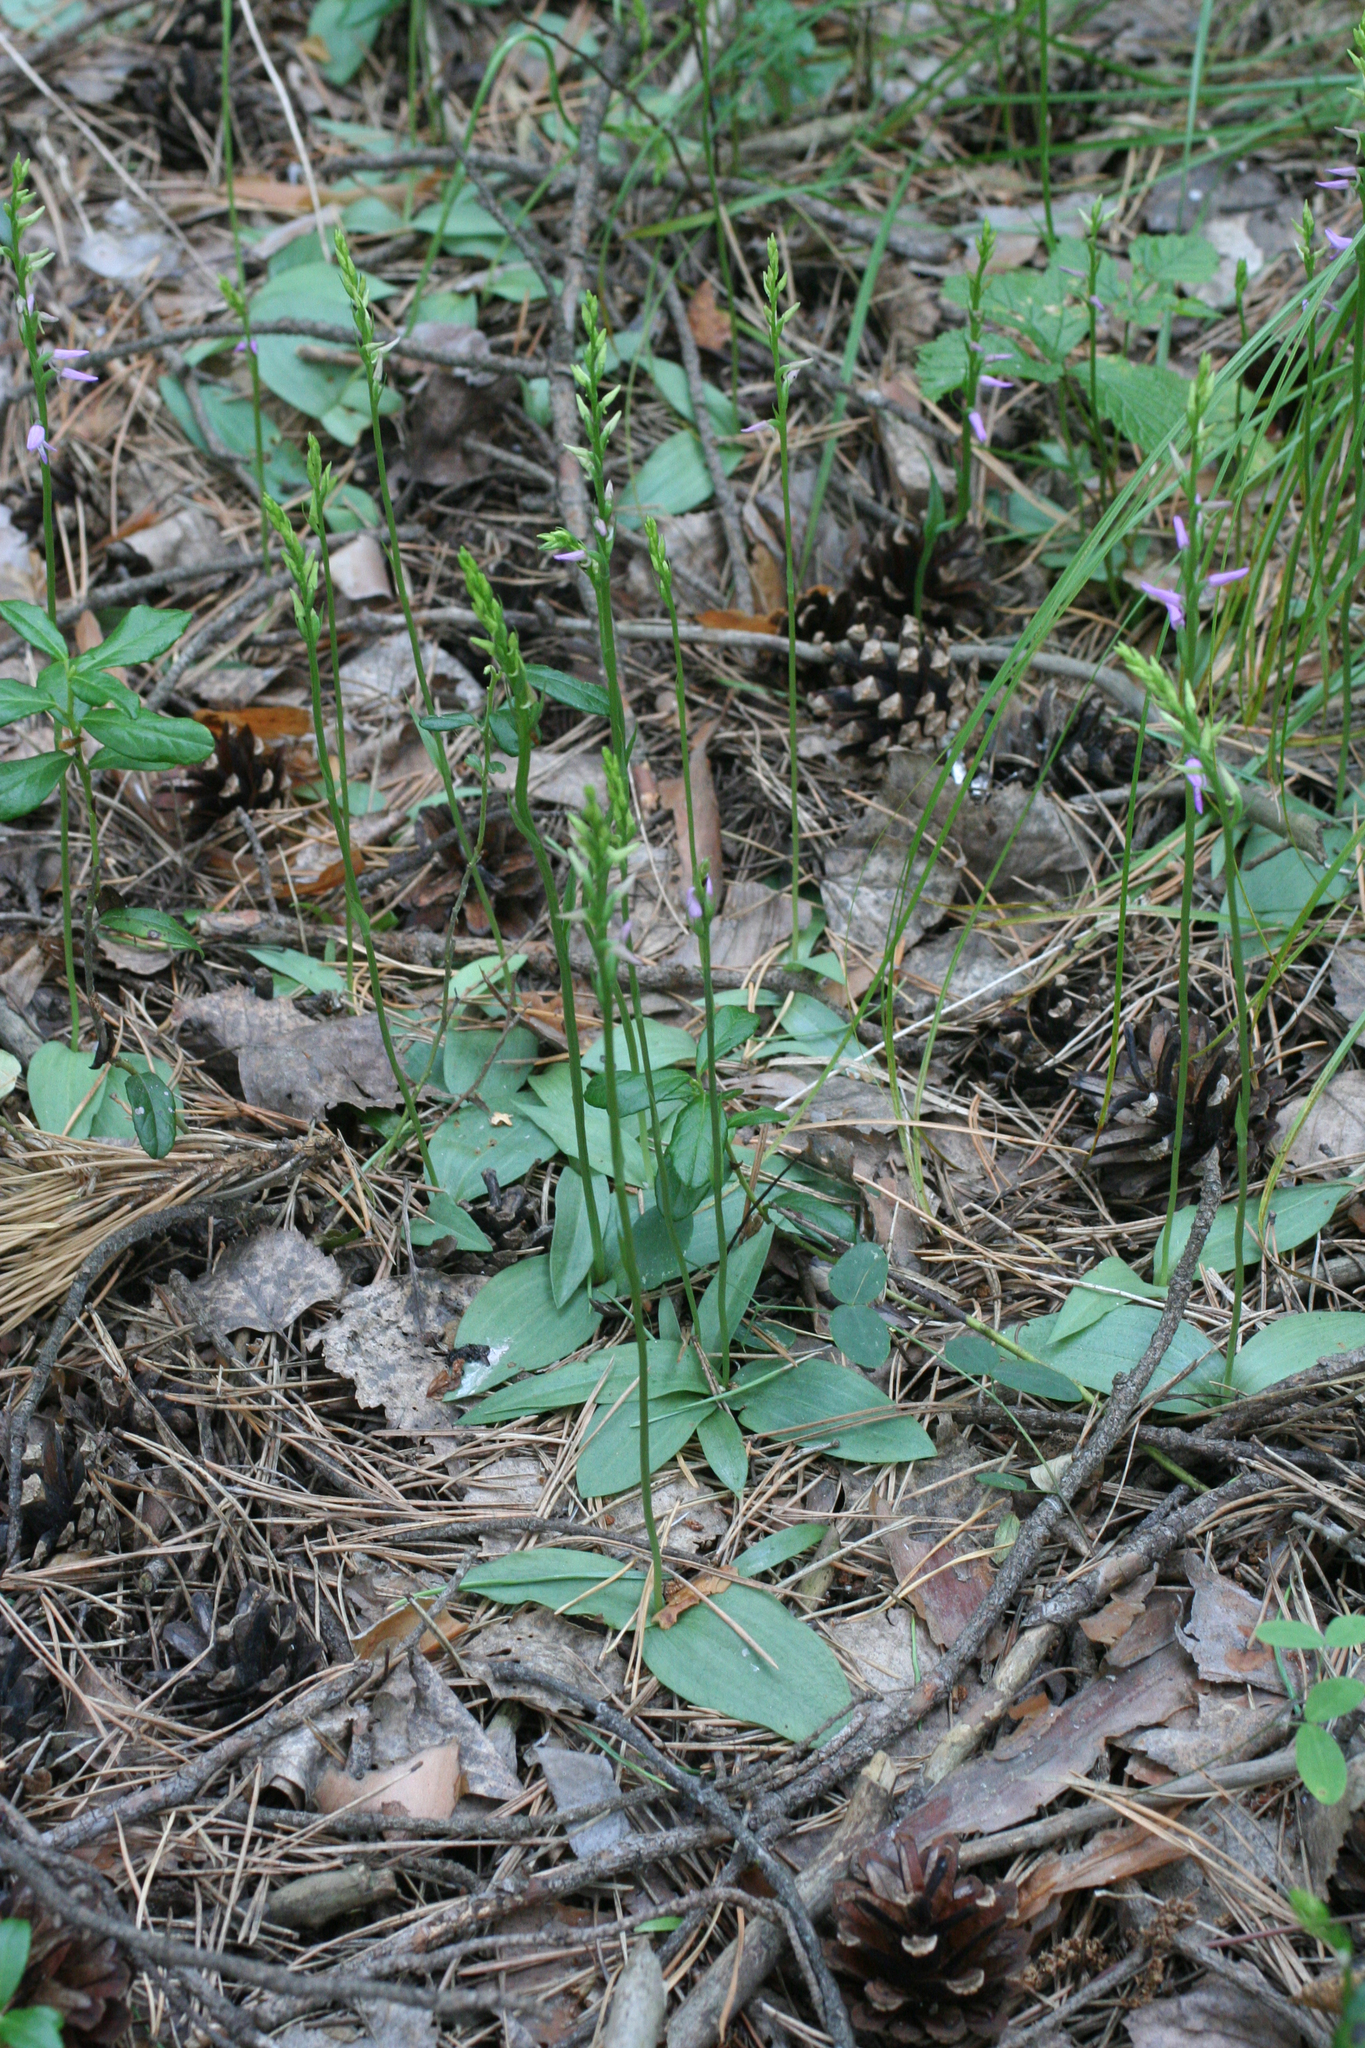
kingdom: Plantae
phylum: Tracheophyta
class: Liliopsida
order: Asparagales
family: Orchidaceae
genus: Hemipilia
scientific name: Hemipilia cucullata
